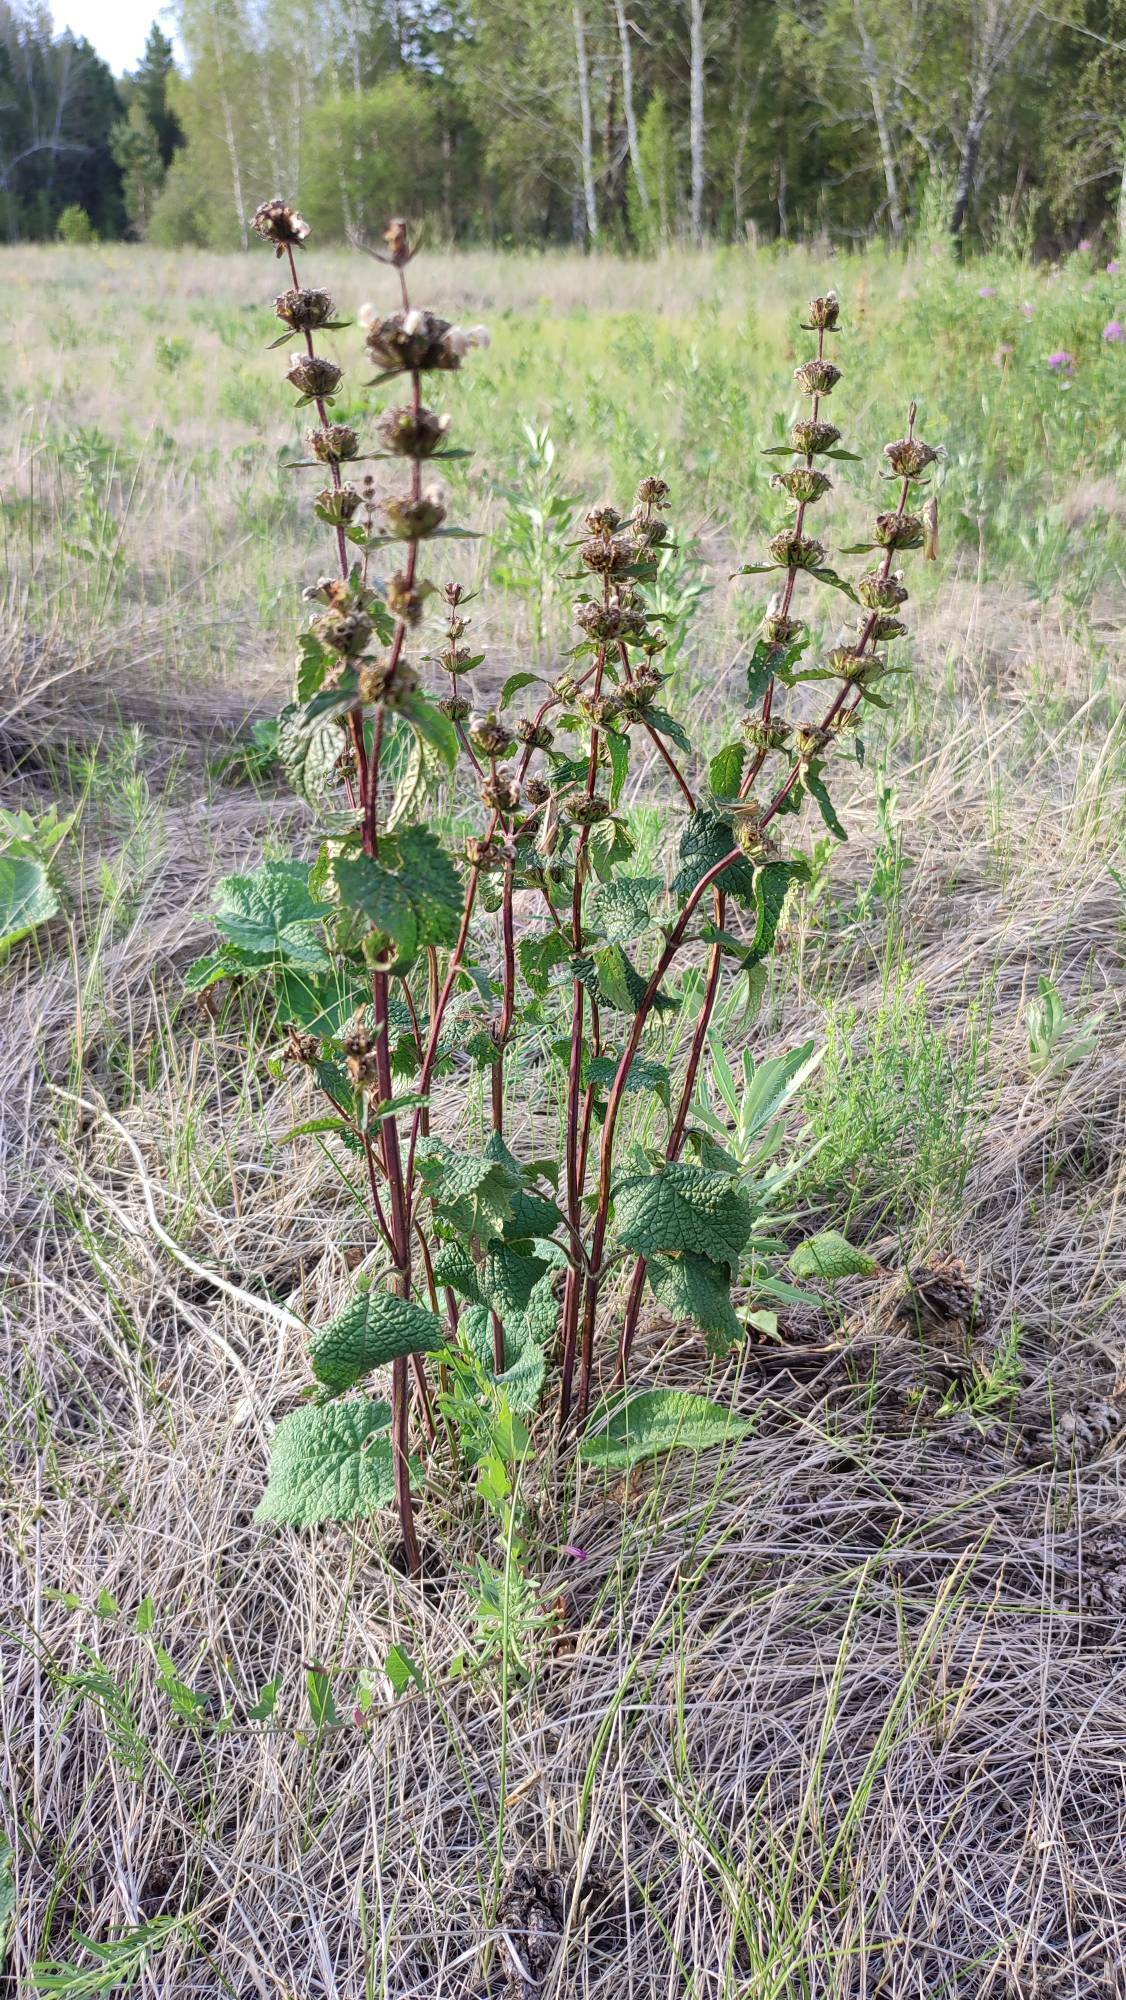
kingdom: Plantae
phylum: Tracheophyta
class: Magnoliopsida
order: Lamiales
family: Lamiaceae
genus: Phlomoides
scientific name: Phlomoides tuberosa
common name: Tuberous jerusalem sage
